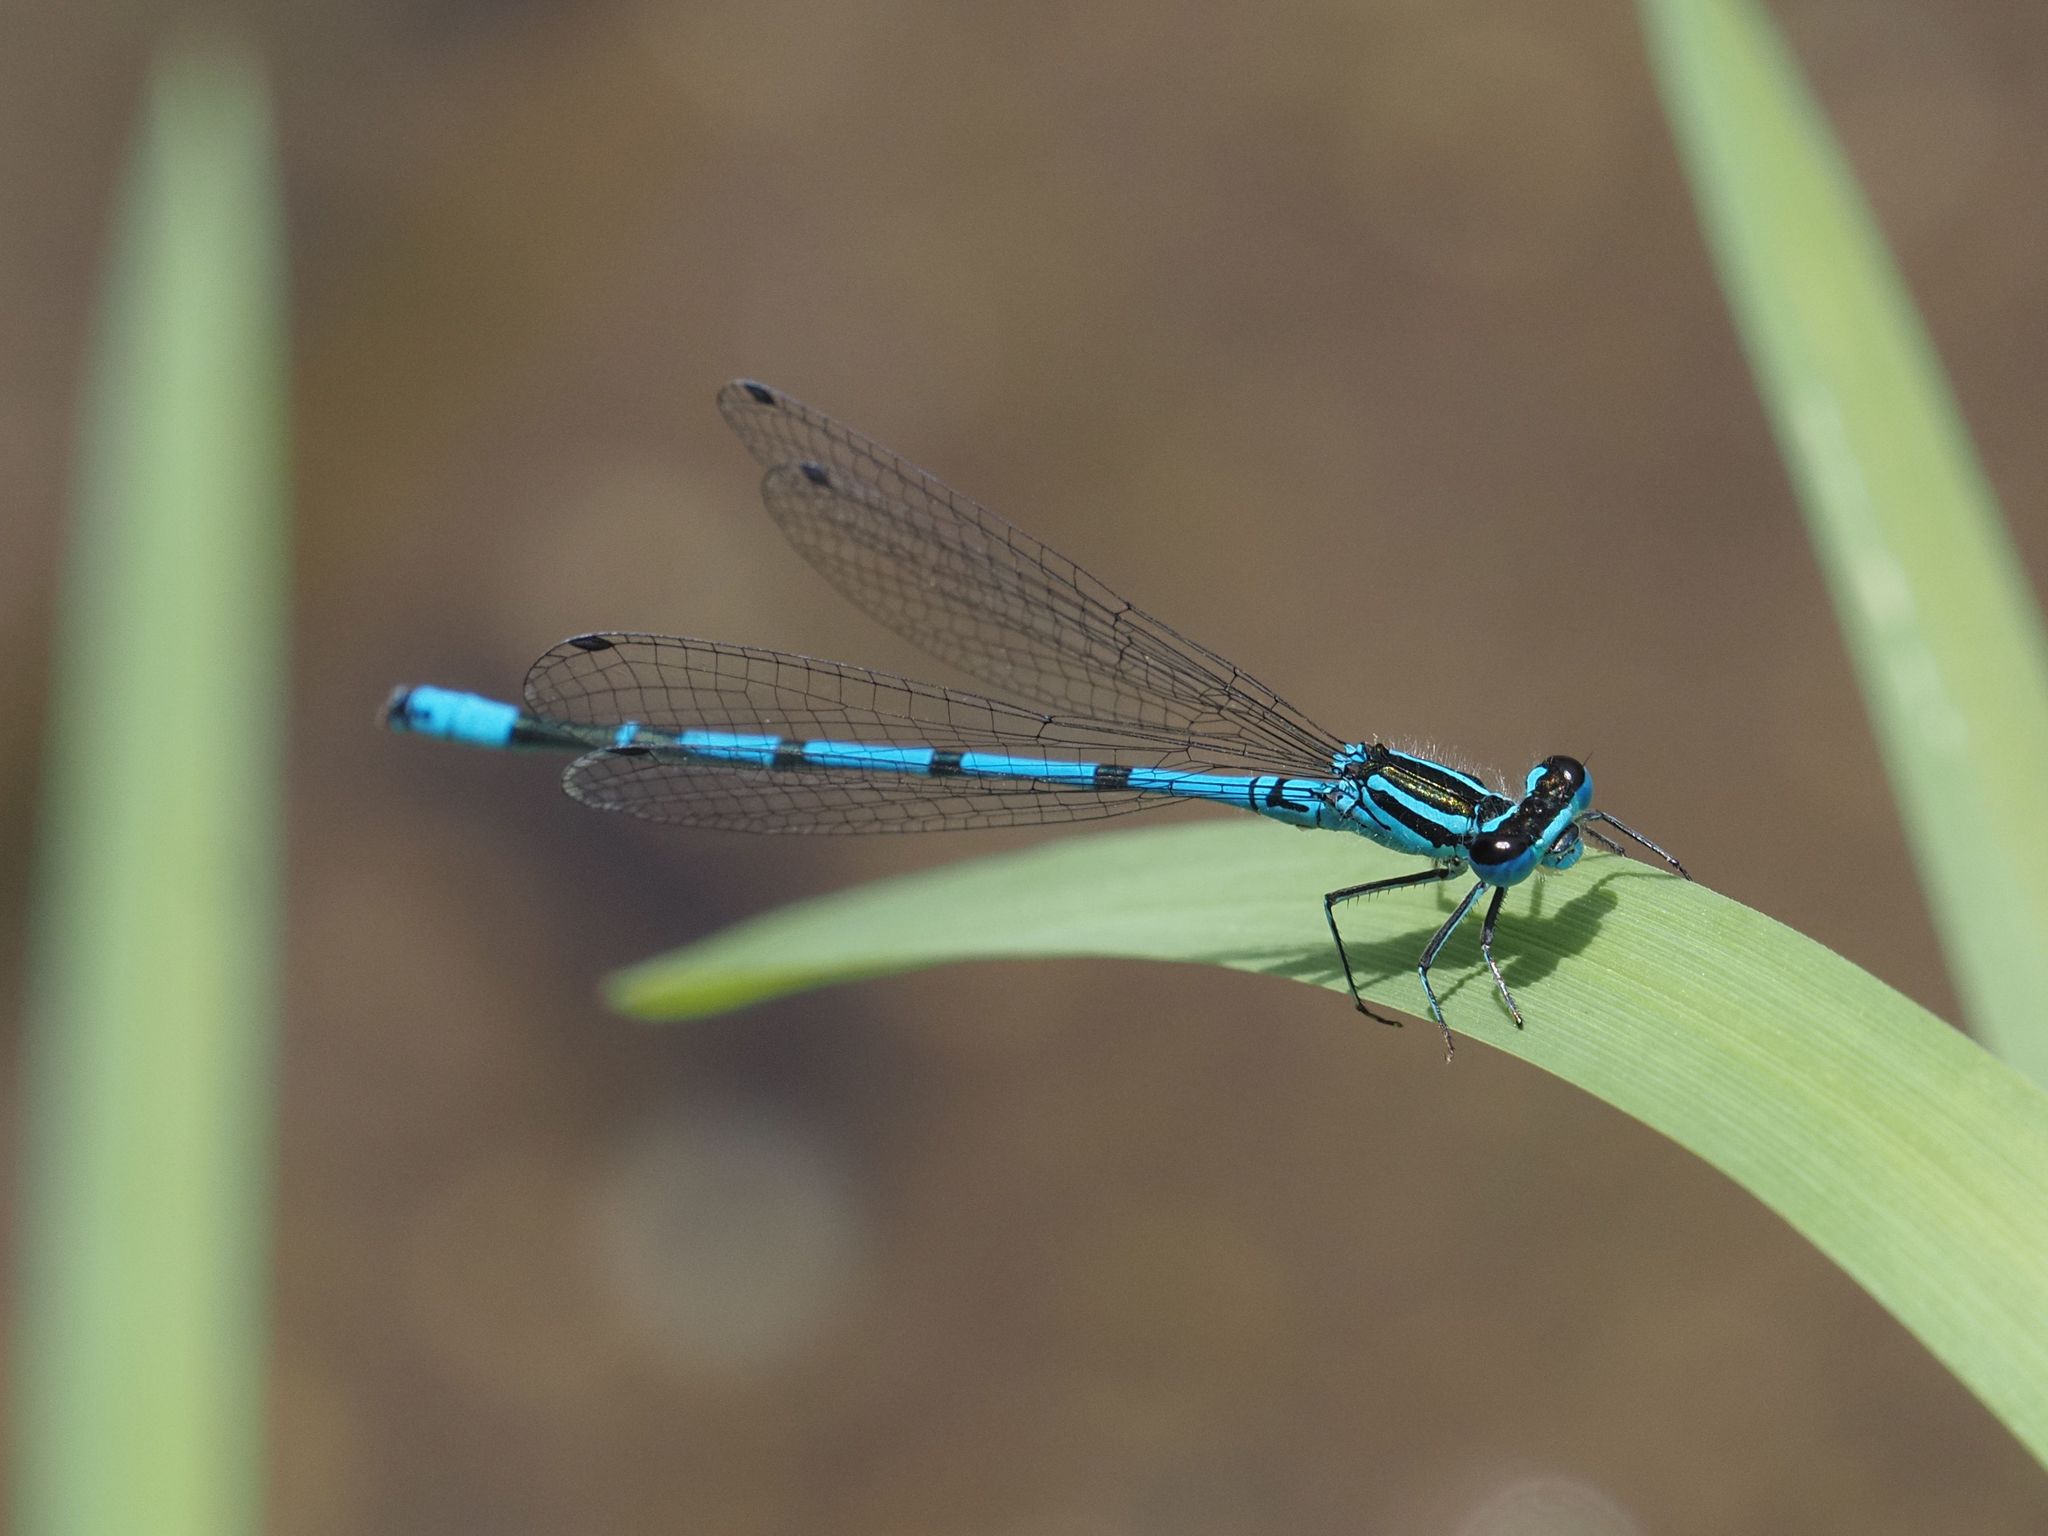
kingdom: Animalia
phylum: Arthropoda
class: Insecta
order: Odonata
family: Coenagrionidae
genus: Coenagrion
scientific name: Coenagrion puella
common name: Azure damselfly
